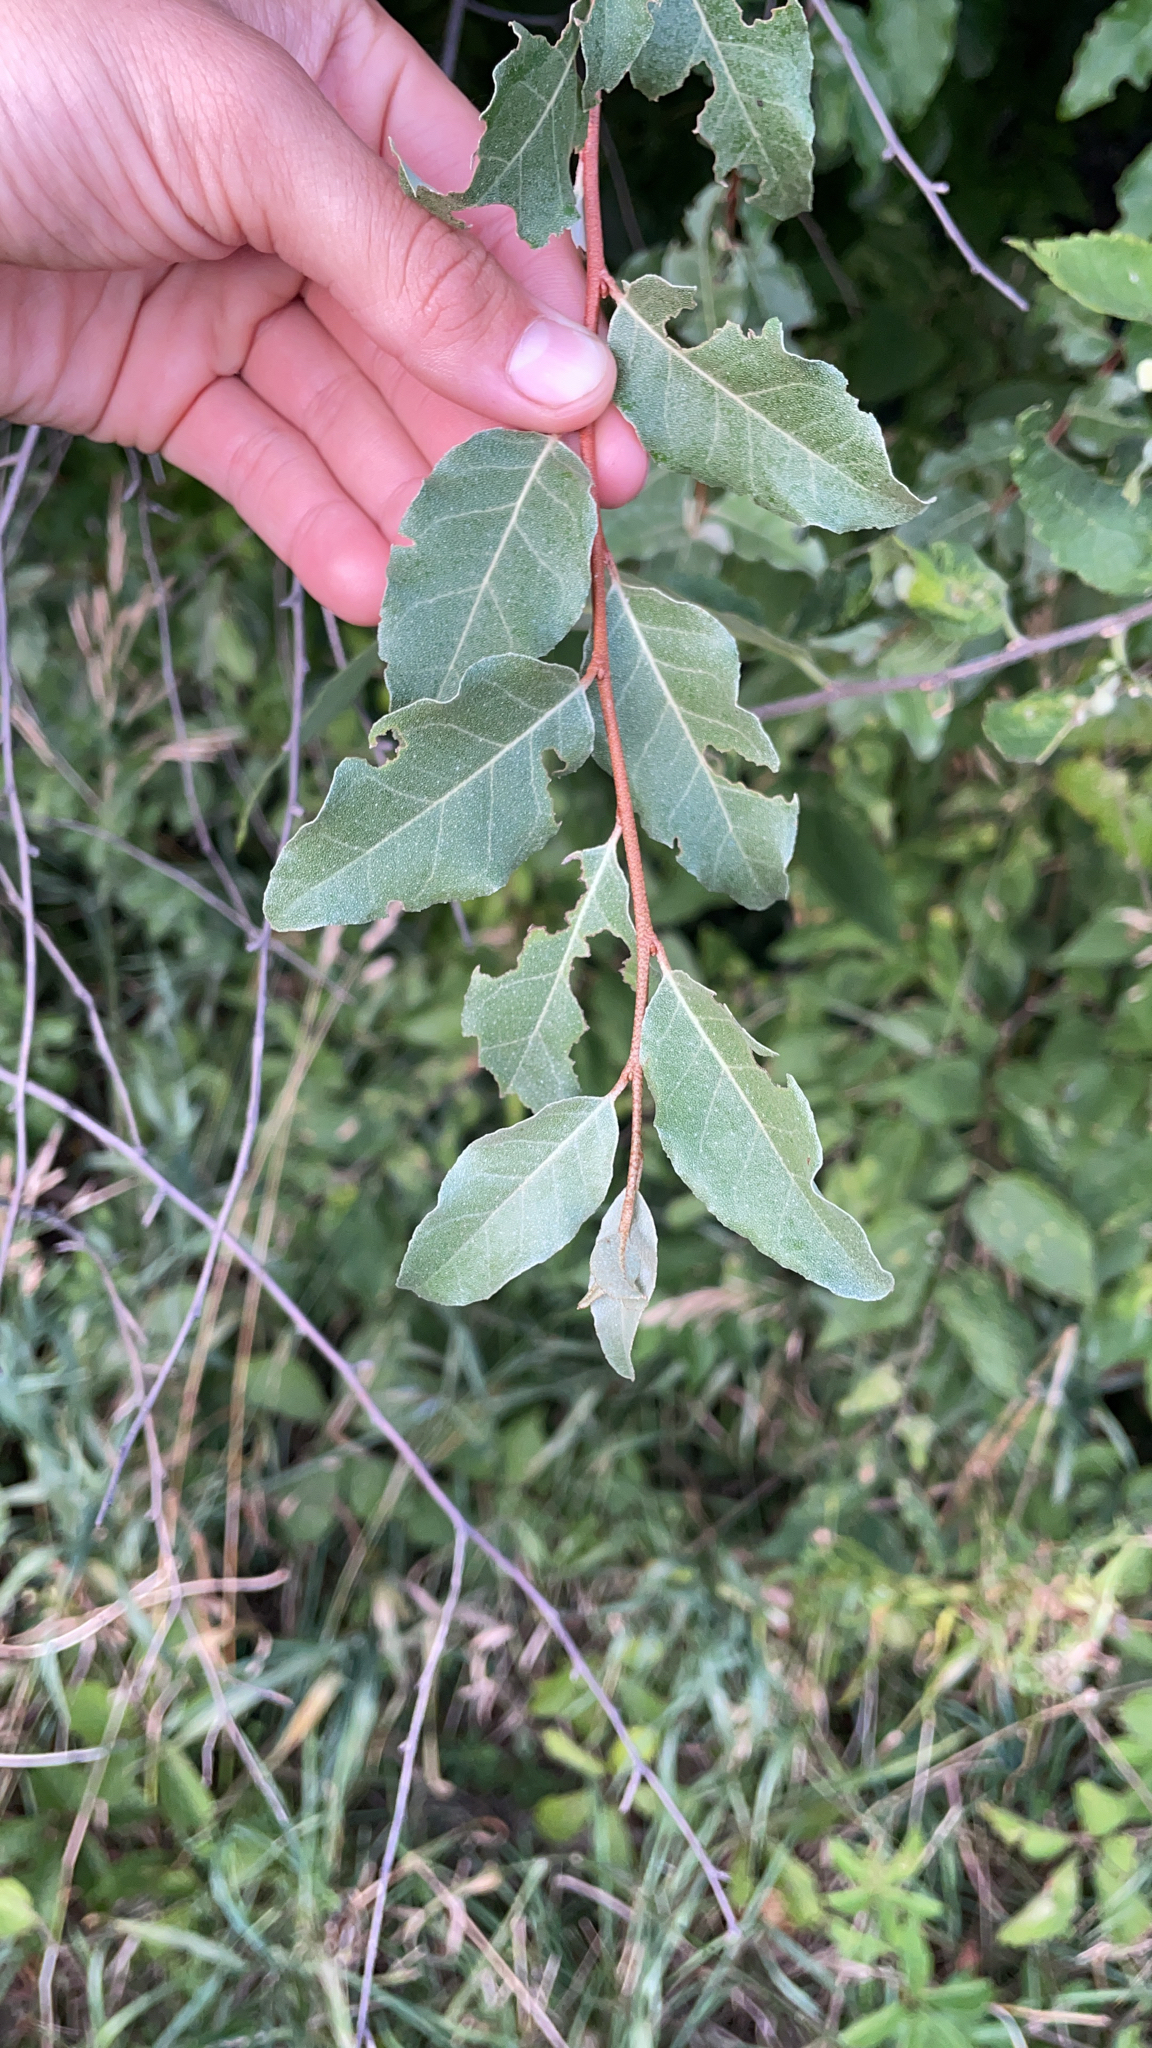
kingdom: Plantae
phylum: Tracheophyta
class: Magnoliopsida
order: Rosales
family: Elaeagnaceae
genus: Elaeagnus
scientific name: Elaeagnus umbellata
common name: Autumn olive
